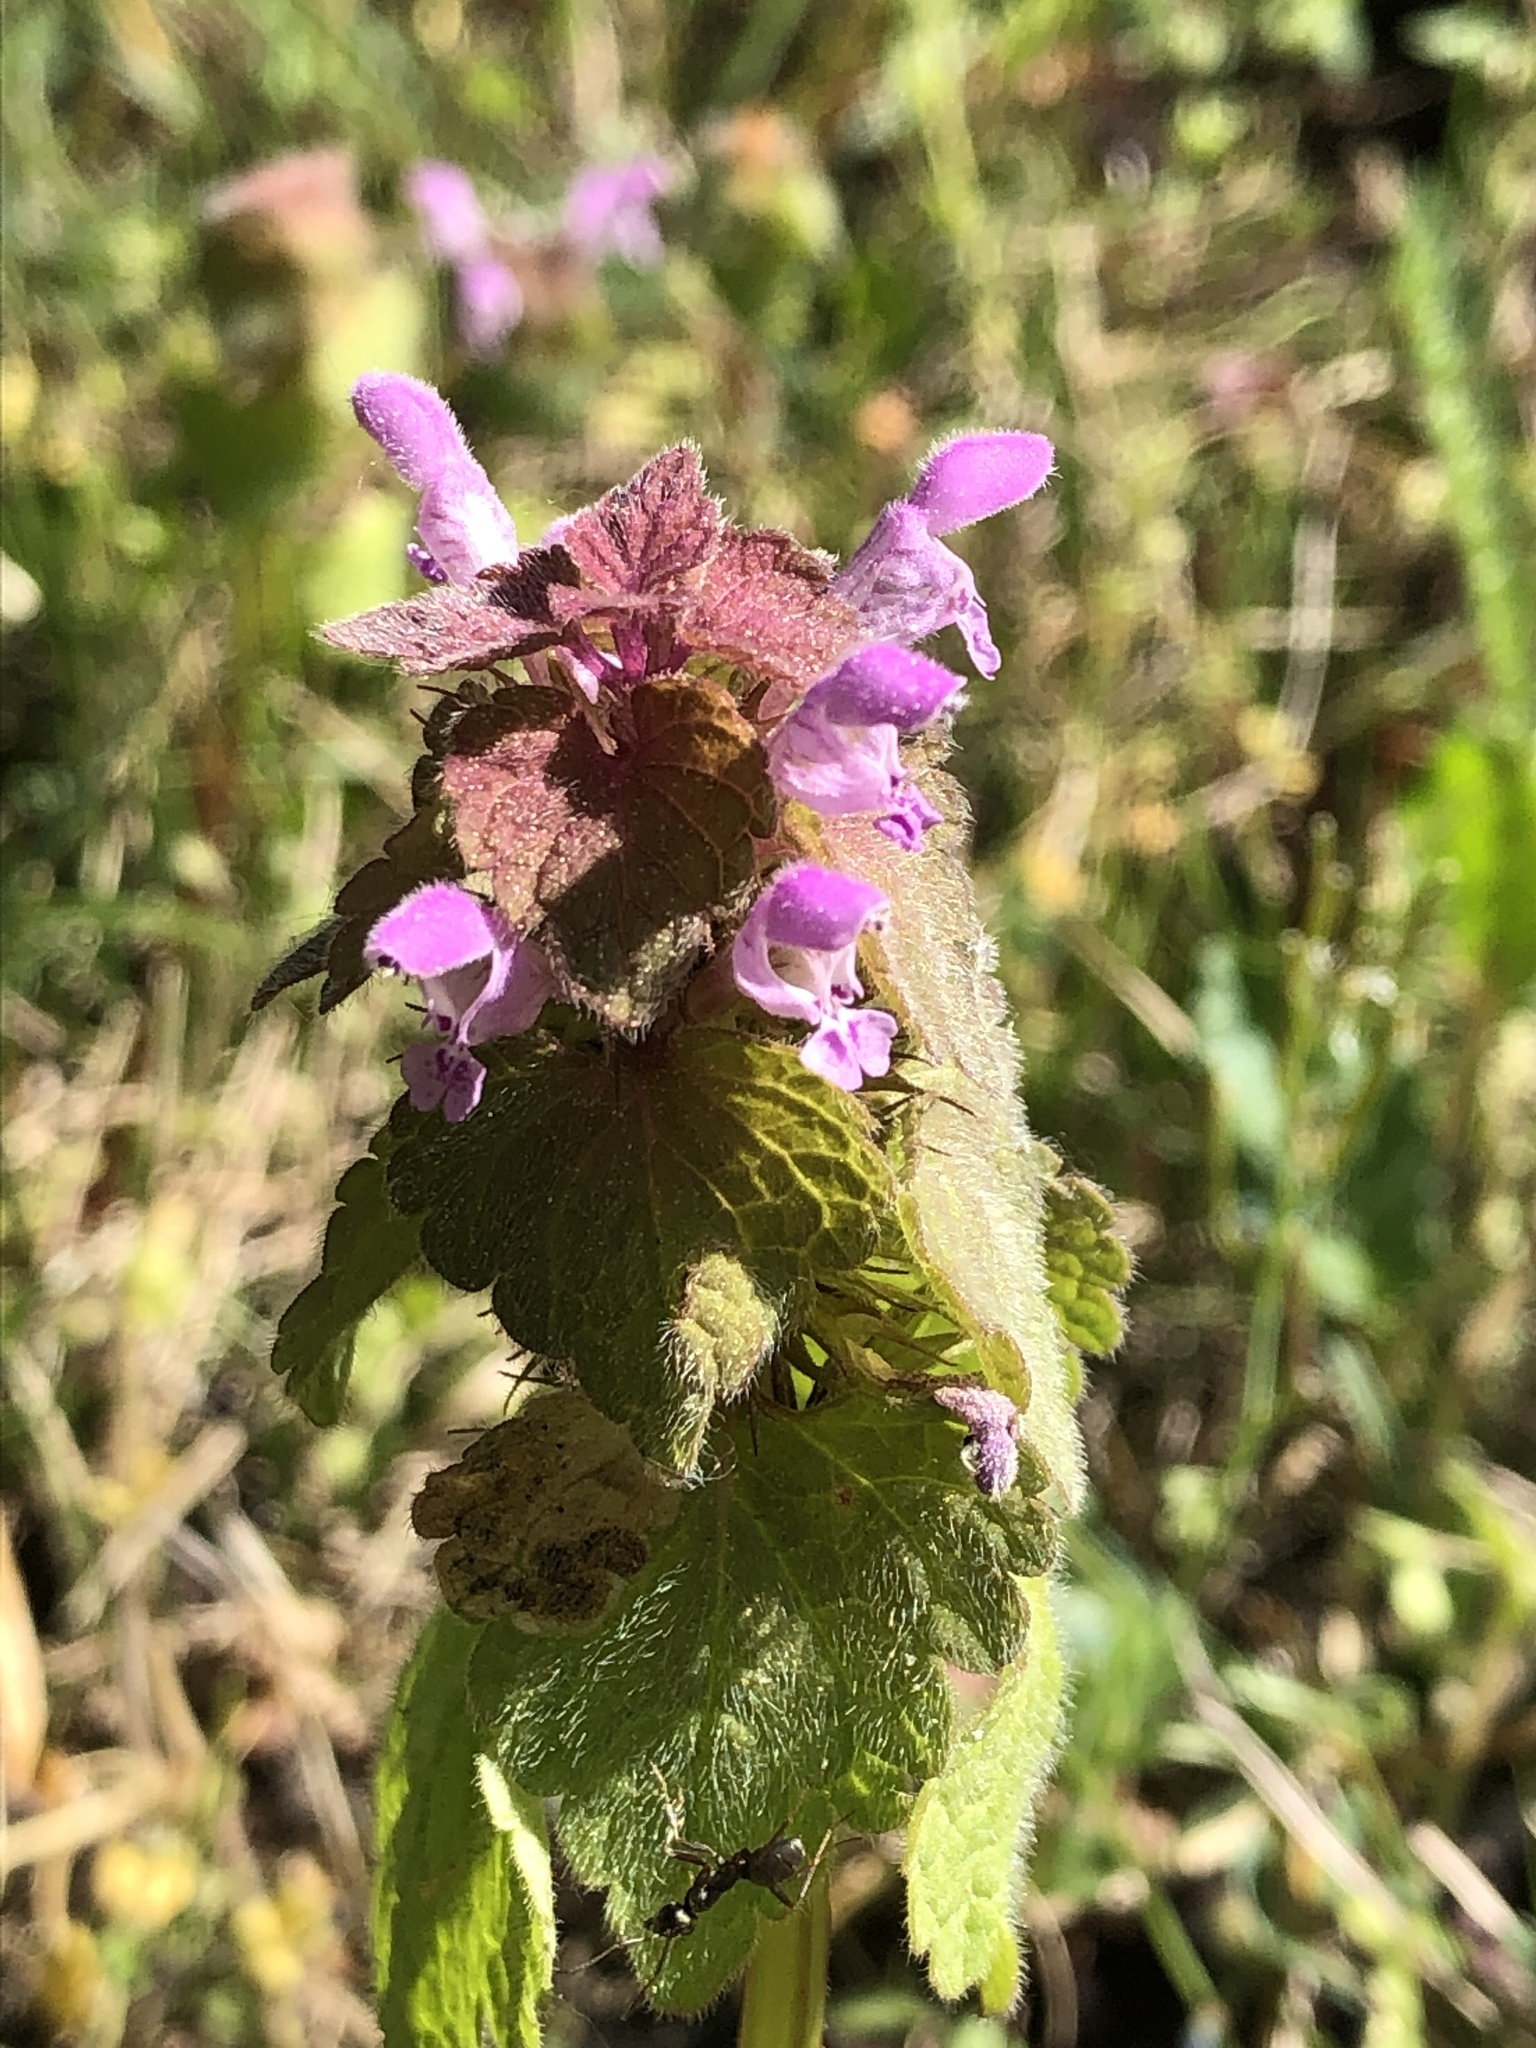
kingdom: Plantae
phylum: Tracheophyta
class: Magnoliopsida
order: Lamiales
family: Lamiaceae
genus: Lamium
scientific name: Lamium purpureum
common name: Red dead-nettle
